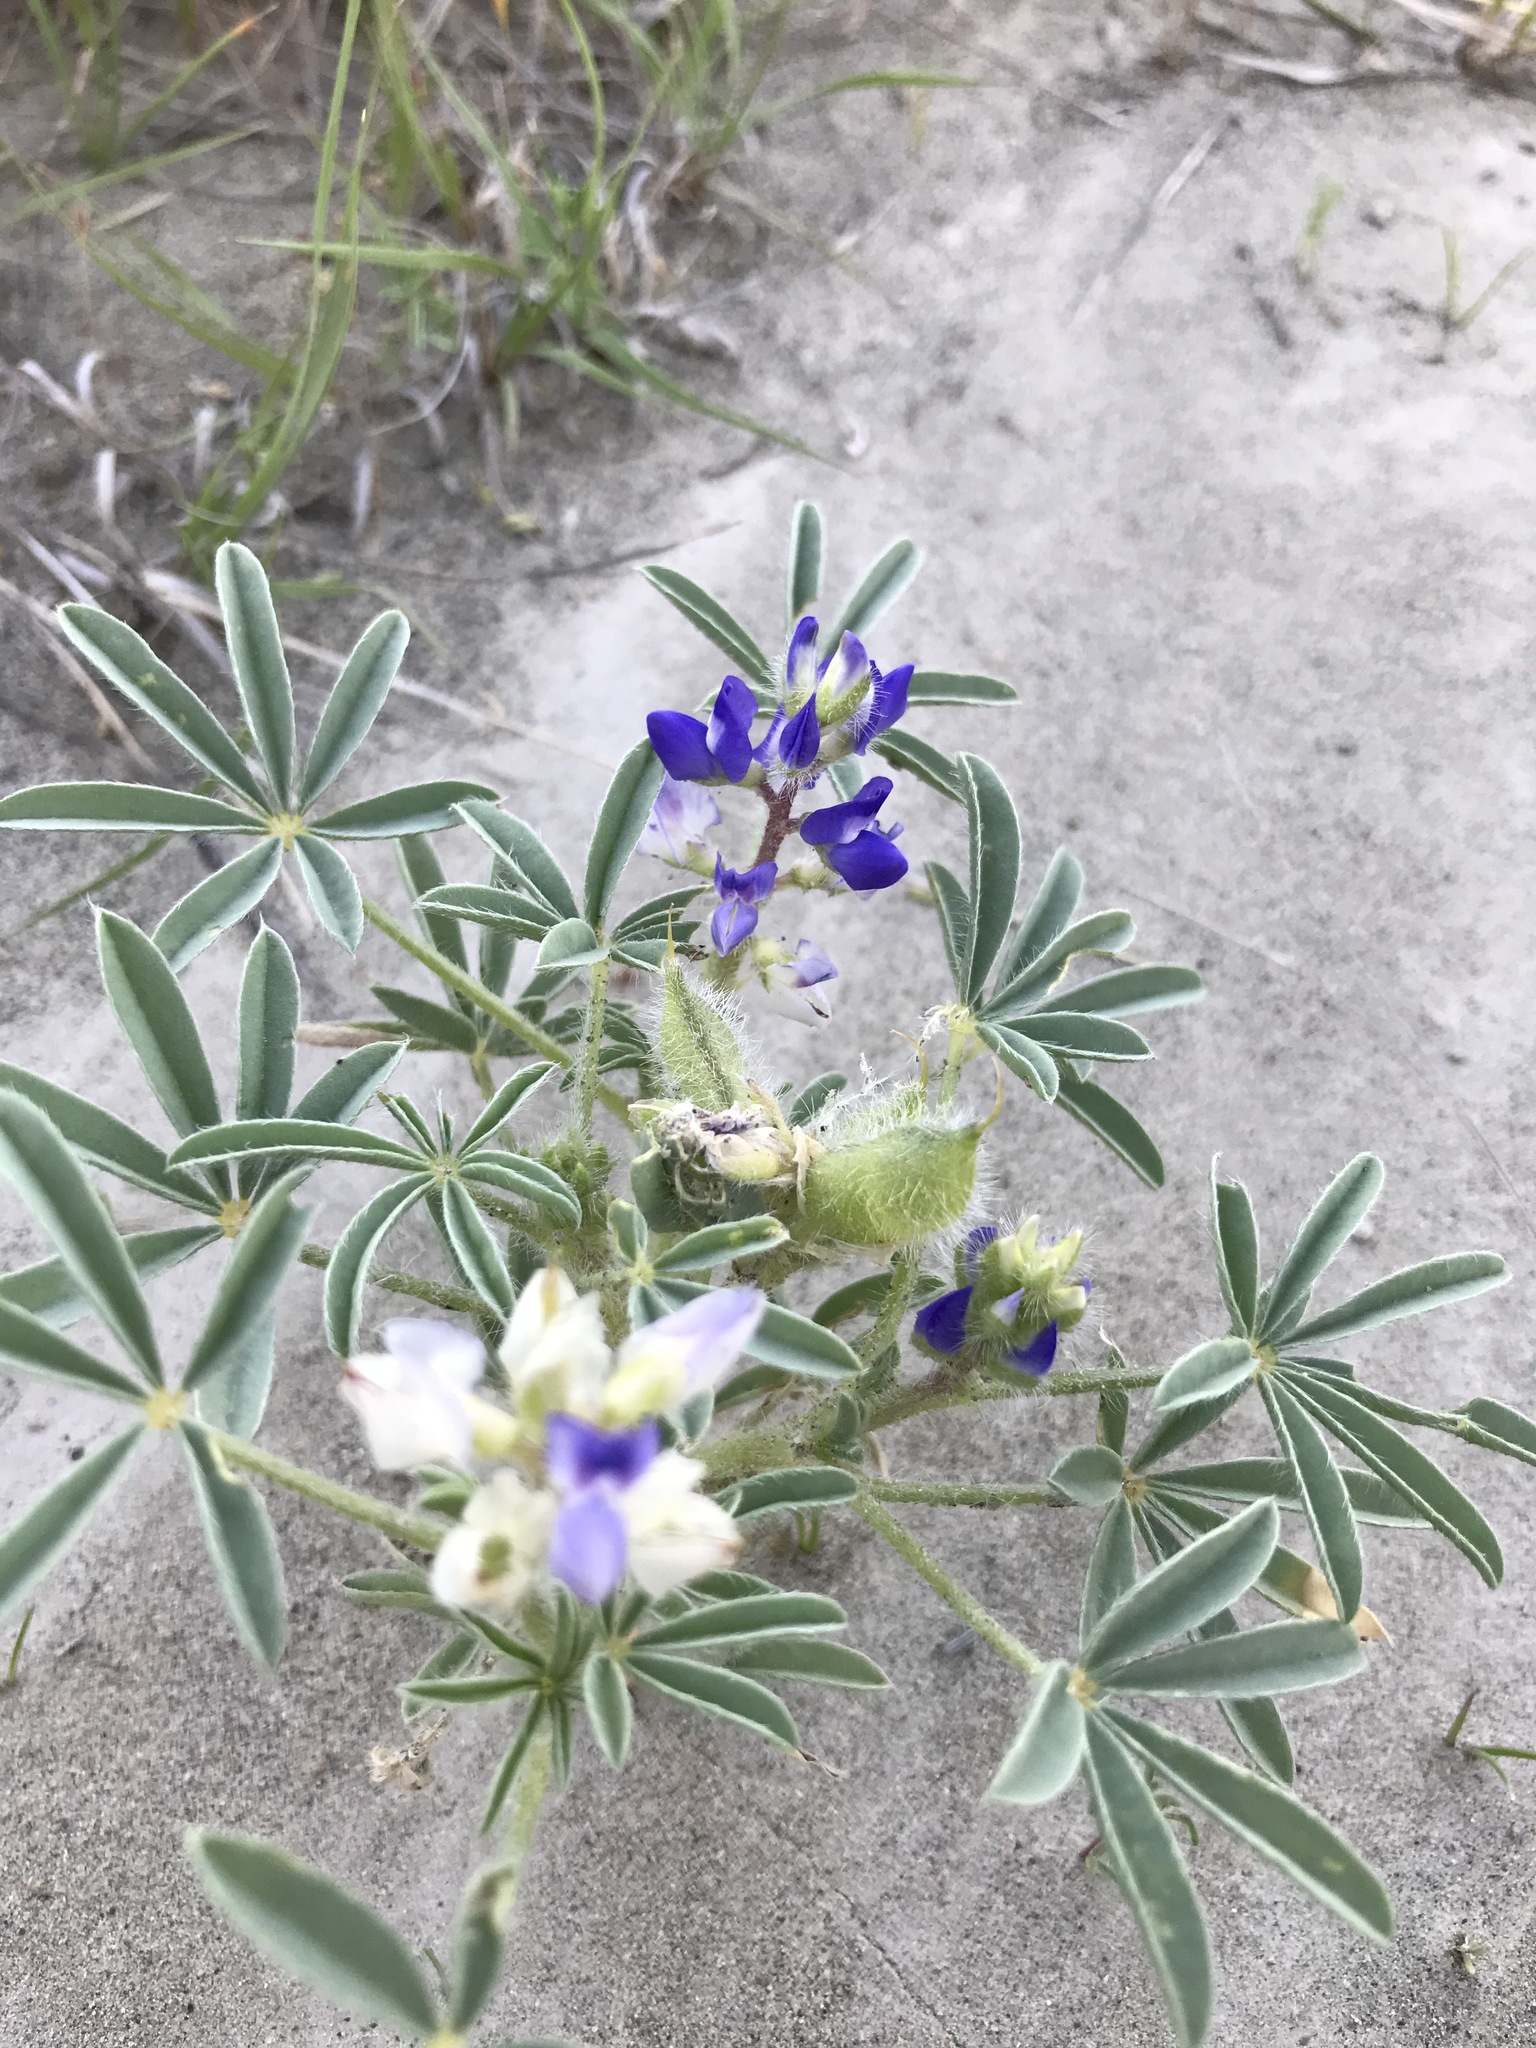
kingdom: Plantae
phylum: Tracheophyta
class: Magnoliopsida
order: Fabales
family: Fabaceae
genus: Lupinus
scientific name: Lupinus pusillus
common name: Low lupine
